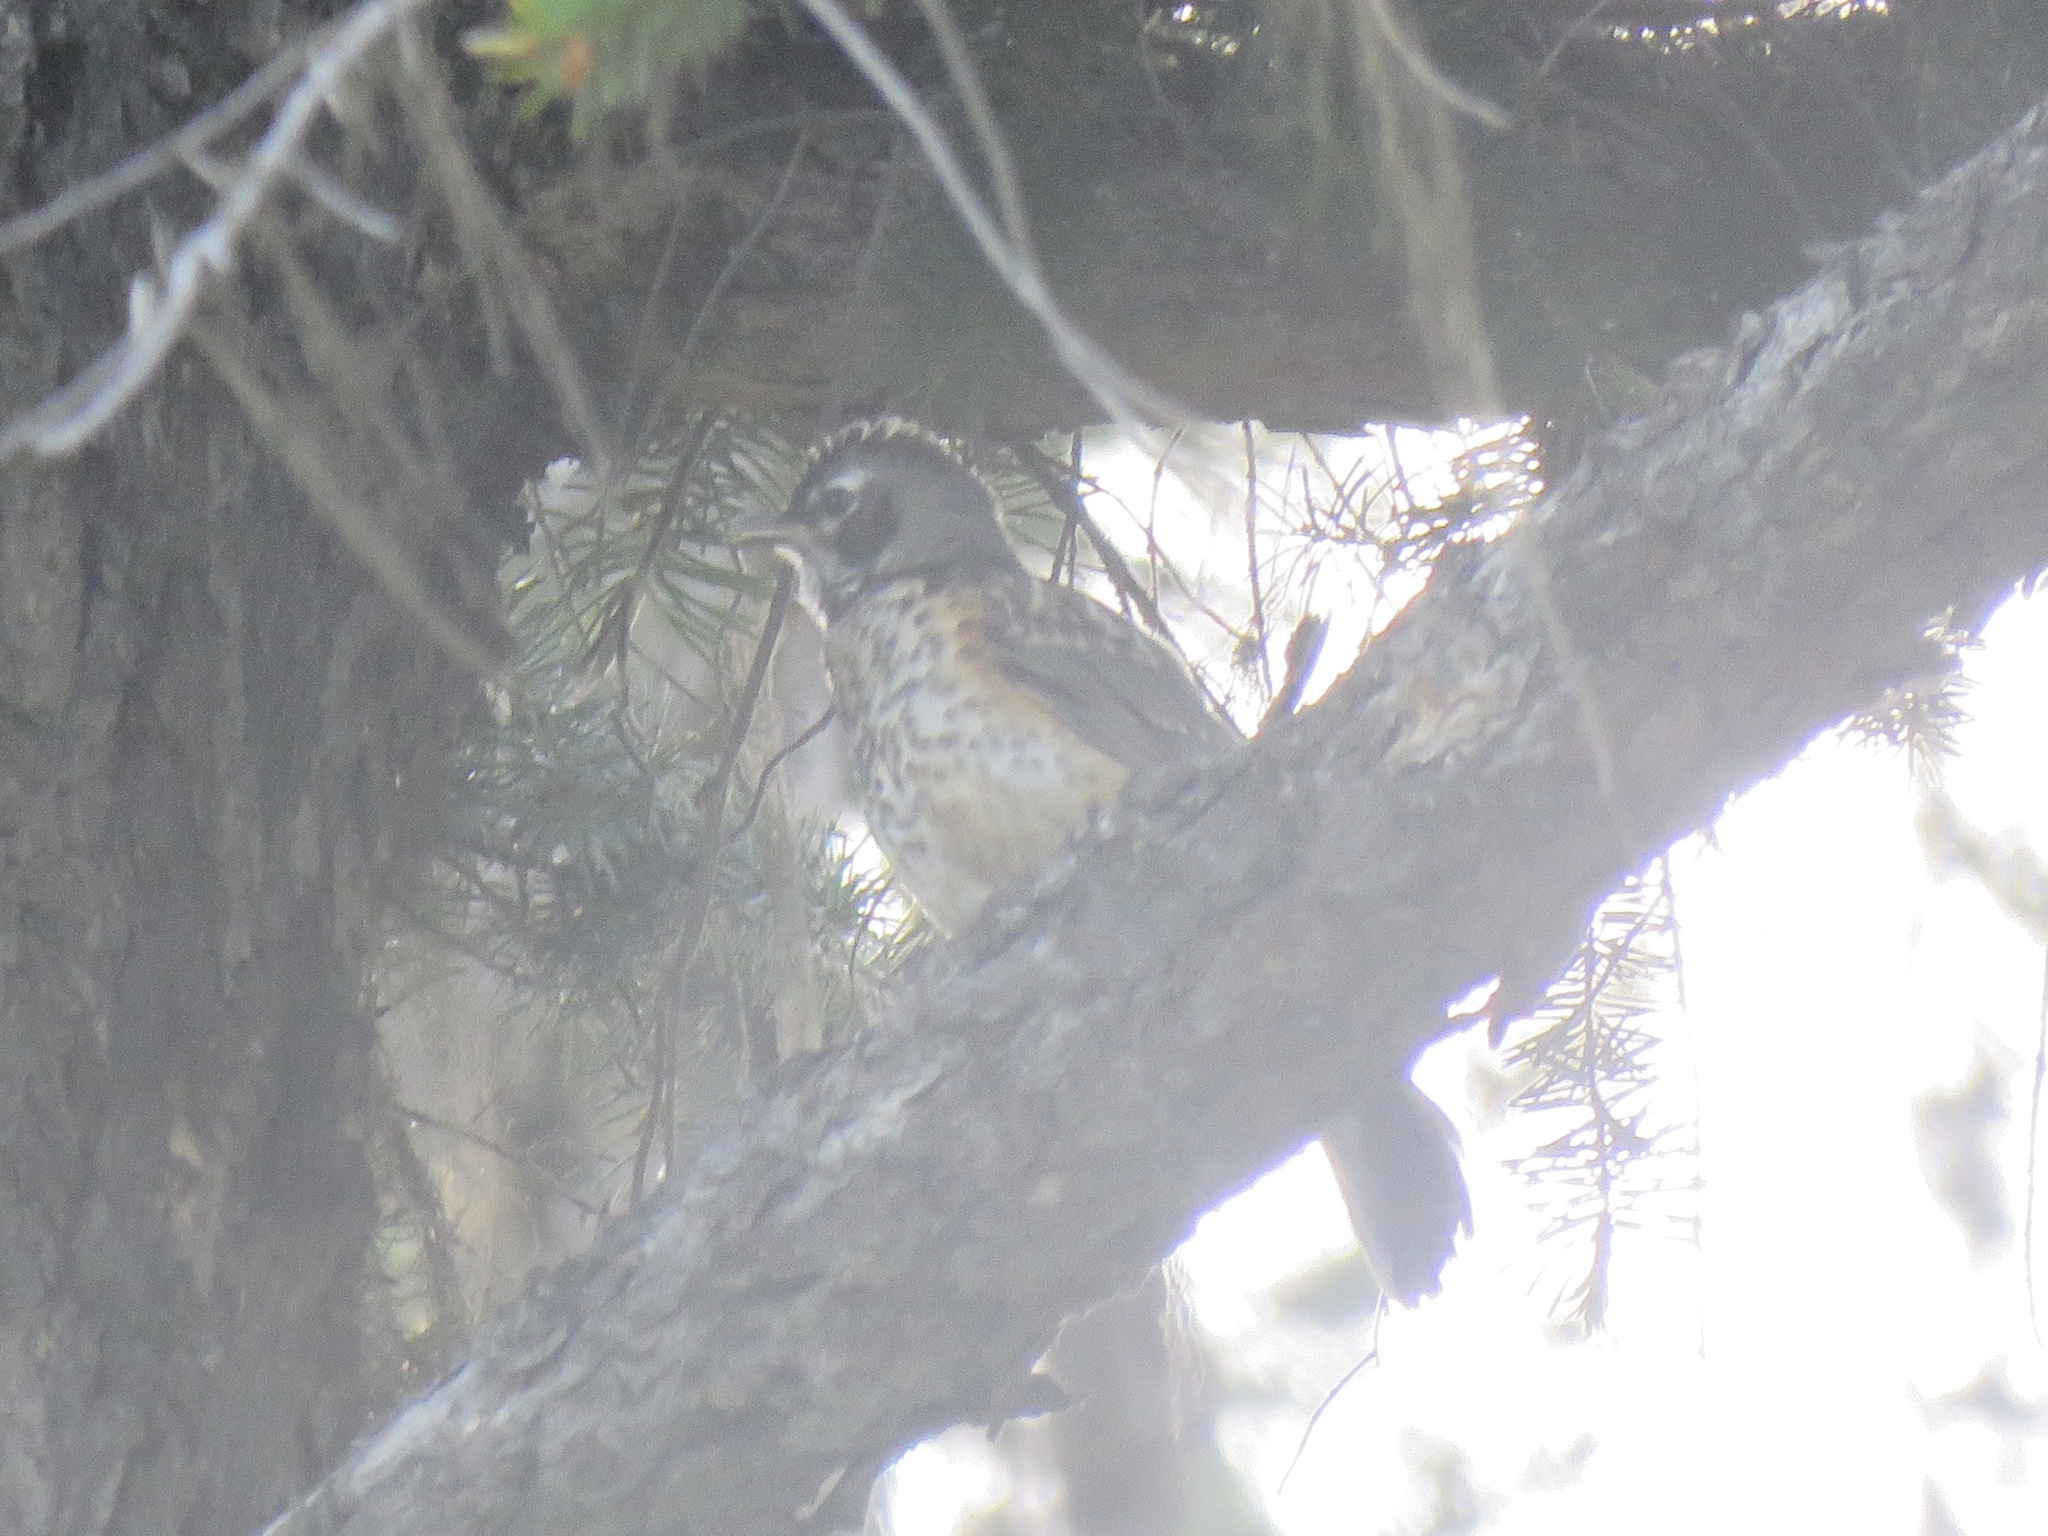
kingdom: Animalia
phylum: Chordata
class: Aves
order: Passeriformes
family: Turdidae
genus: Turdus
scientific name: Turdus migratorius
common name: American robin
